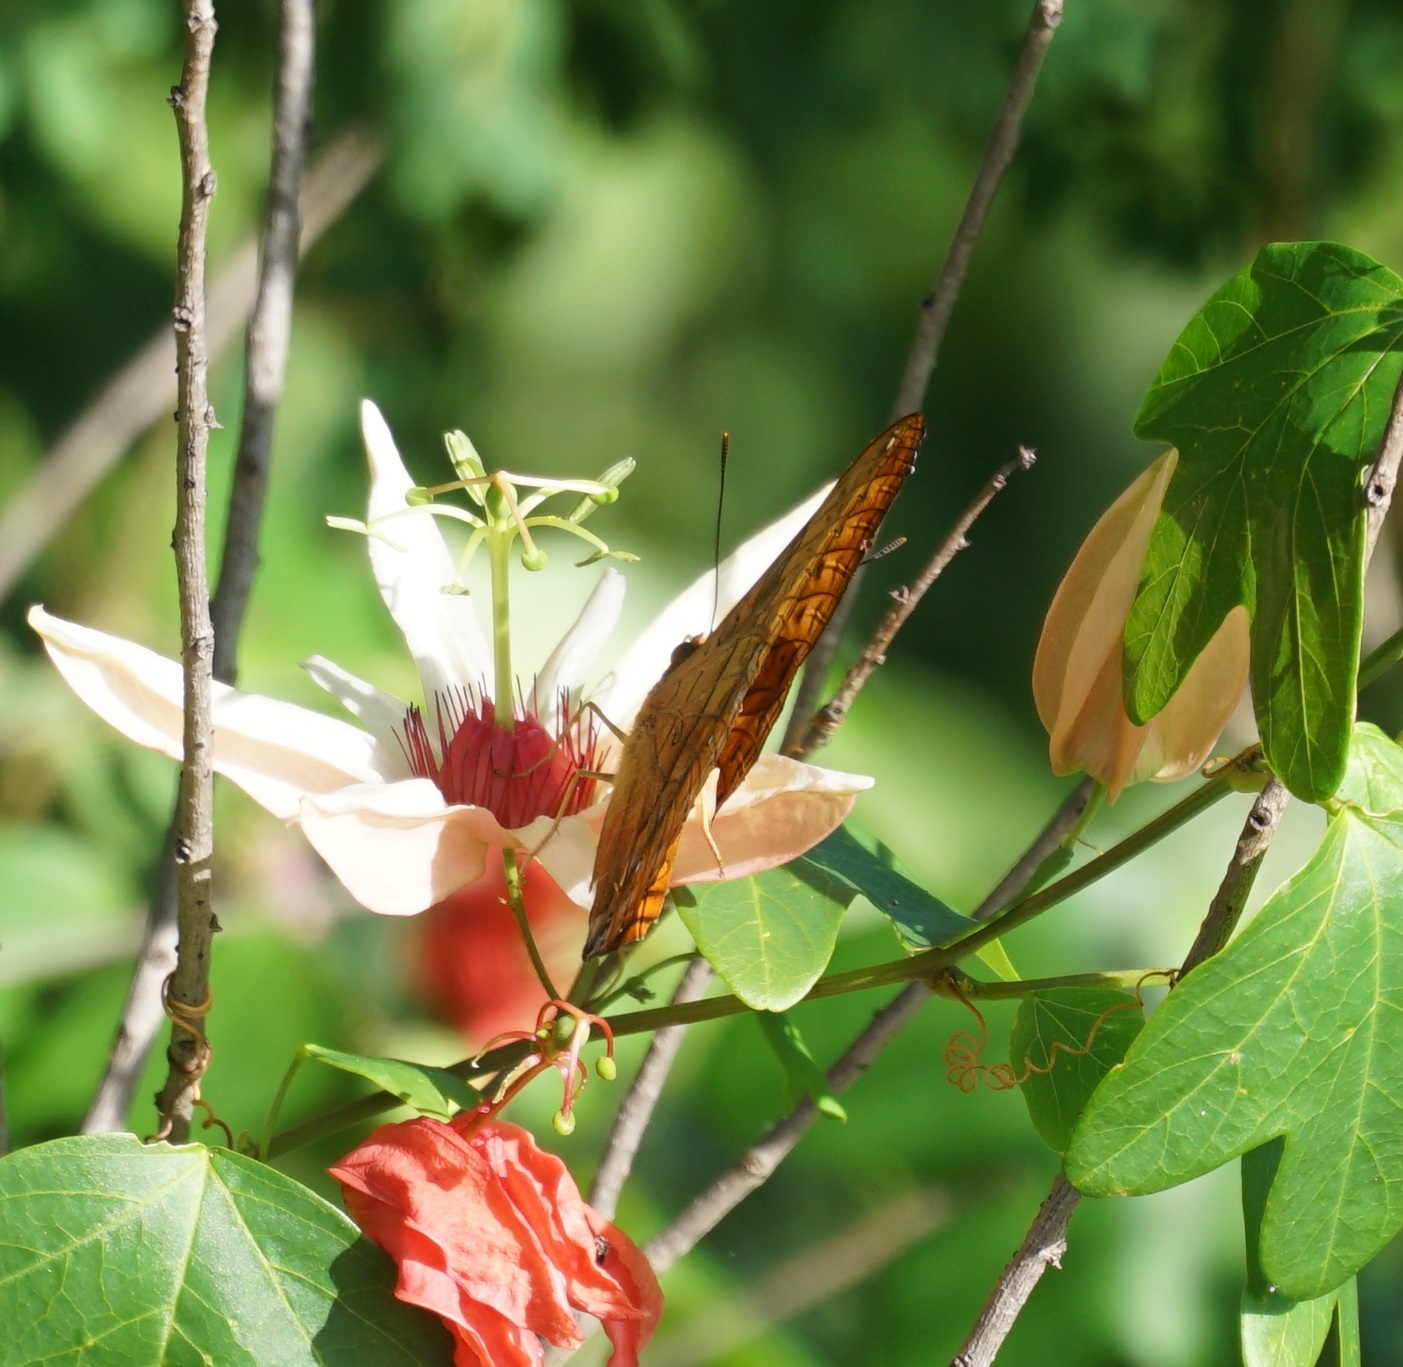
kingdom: Animalia
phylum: Arthropoda
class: Insecta
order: Lepidoptera
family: Nymphalidae
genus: Vindula
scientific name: Vindula arsinoe
